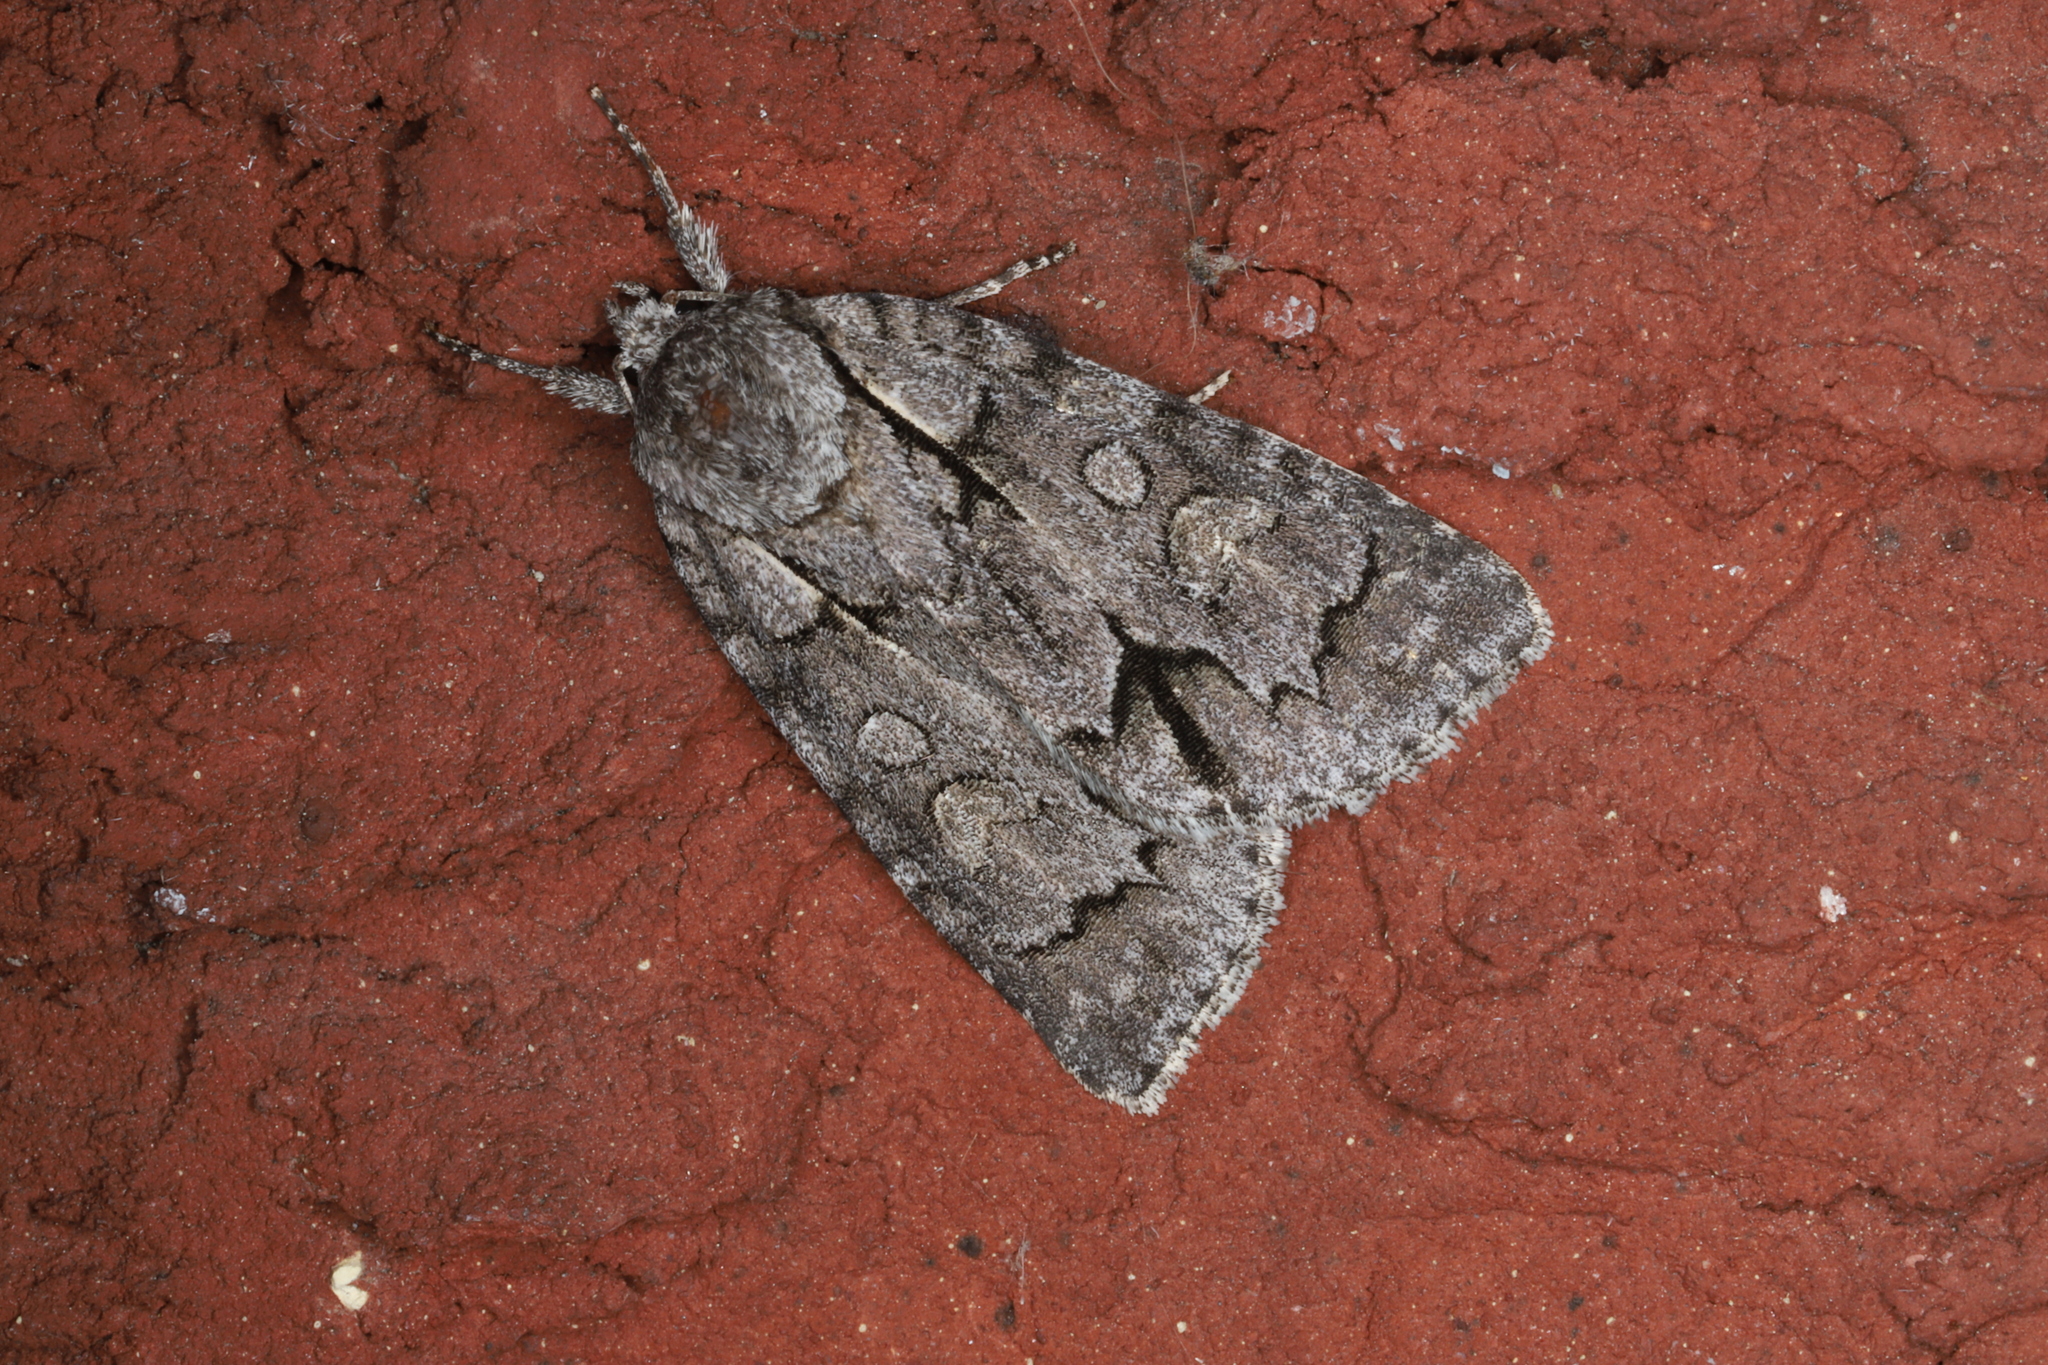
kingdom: Animalia
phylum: Arthropoda
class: Insecta
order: Lepidoptera
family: Noctuidae
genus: Acronicta
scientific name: Acronicta grisea
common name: Gray dagger
